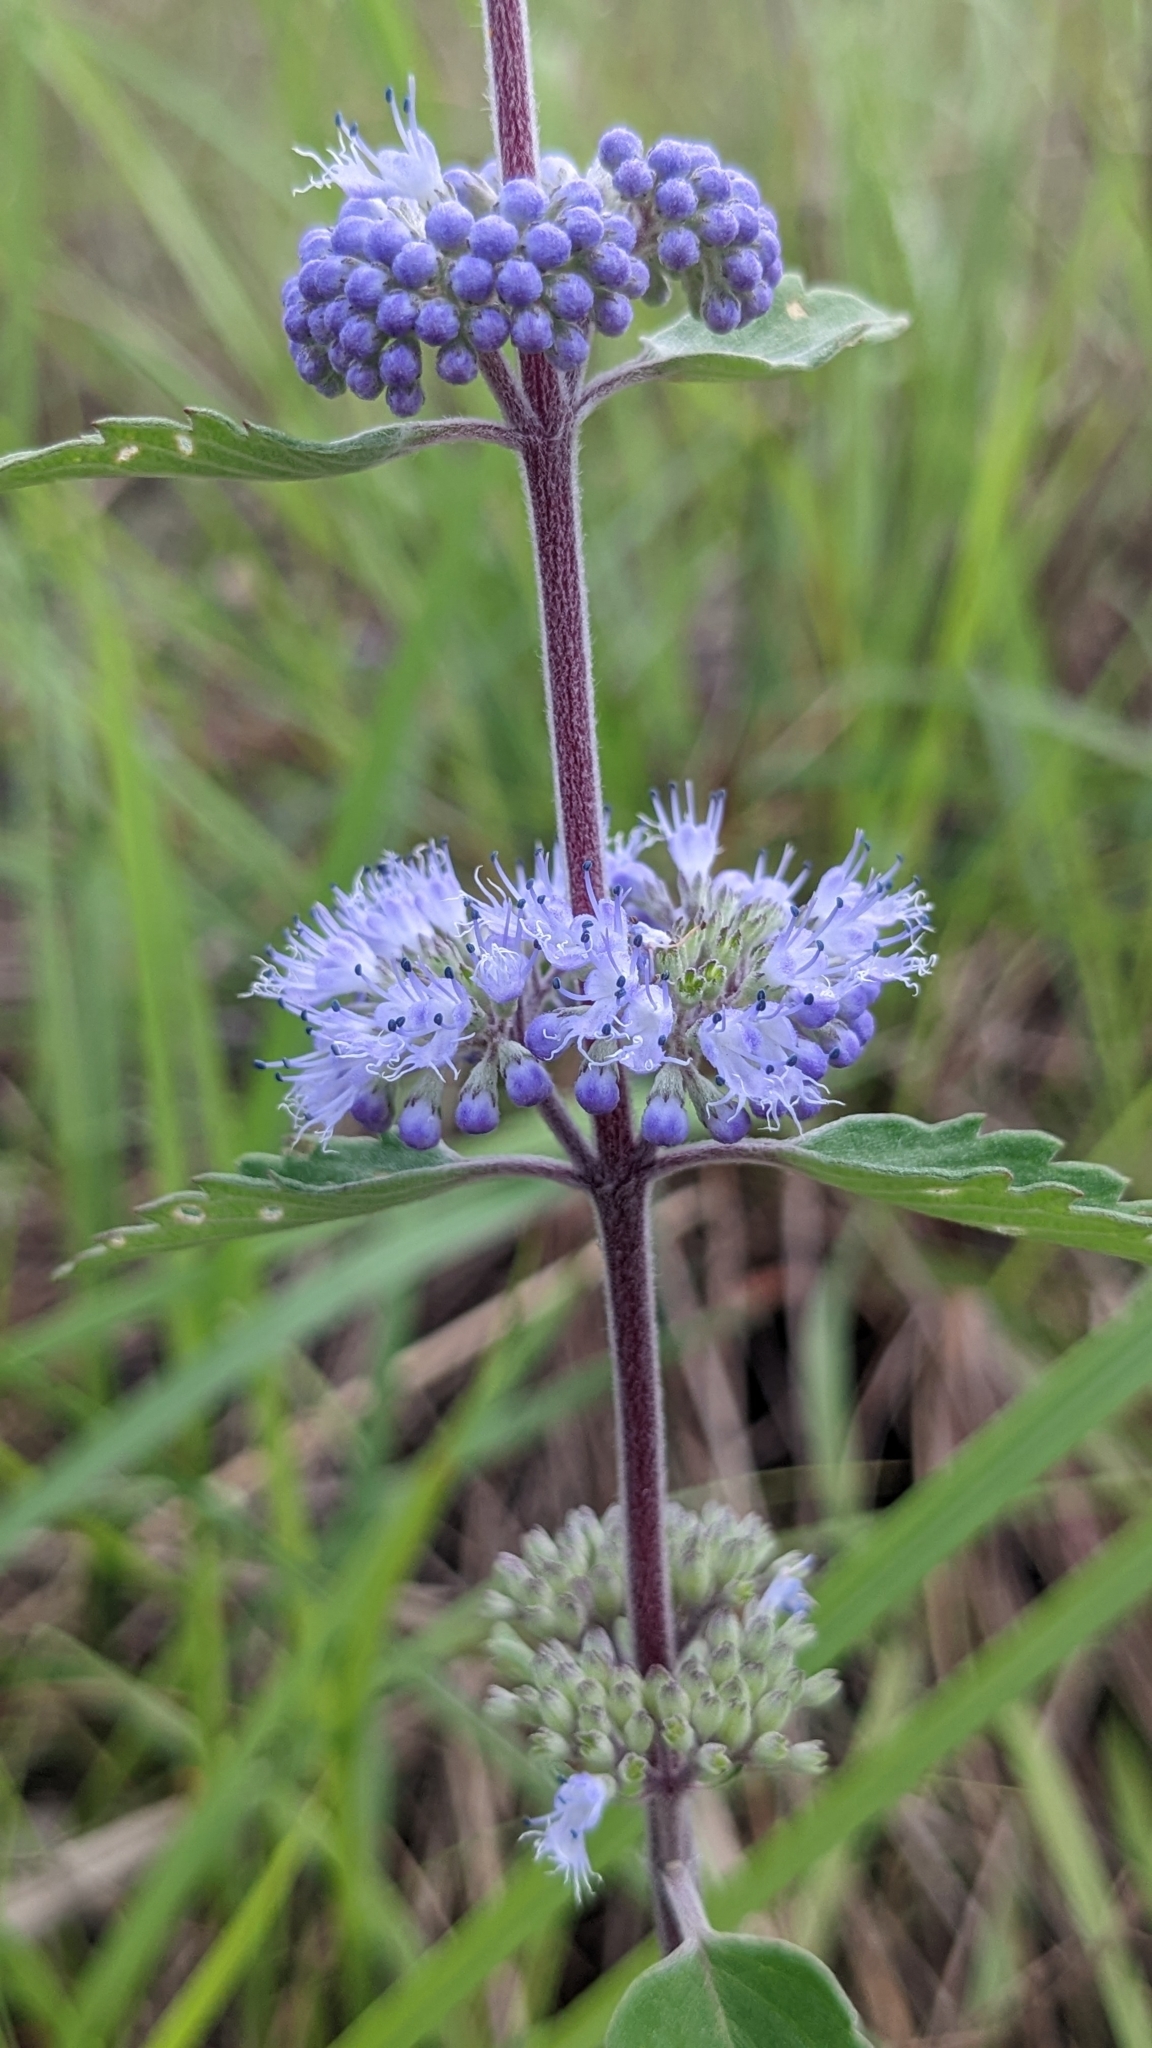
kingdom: Plantae
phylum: Tracheophyta
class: Magnoliopsida
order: Lamiales
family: Lamiaceae
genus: Caryopteris
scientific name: Caryopteris incana
